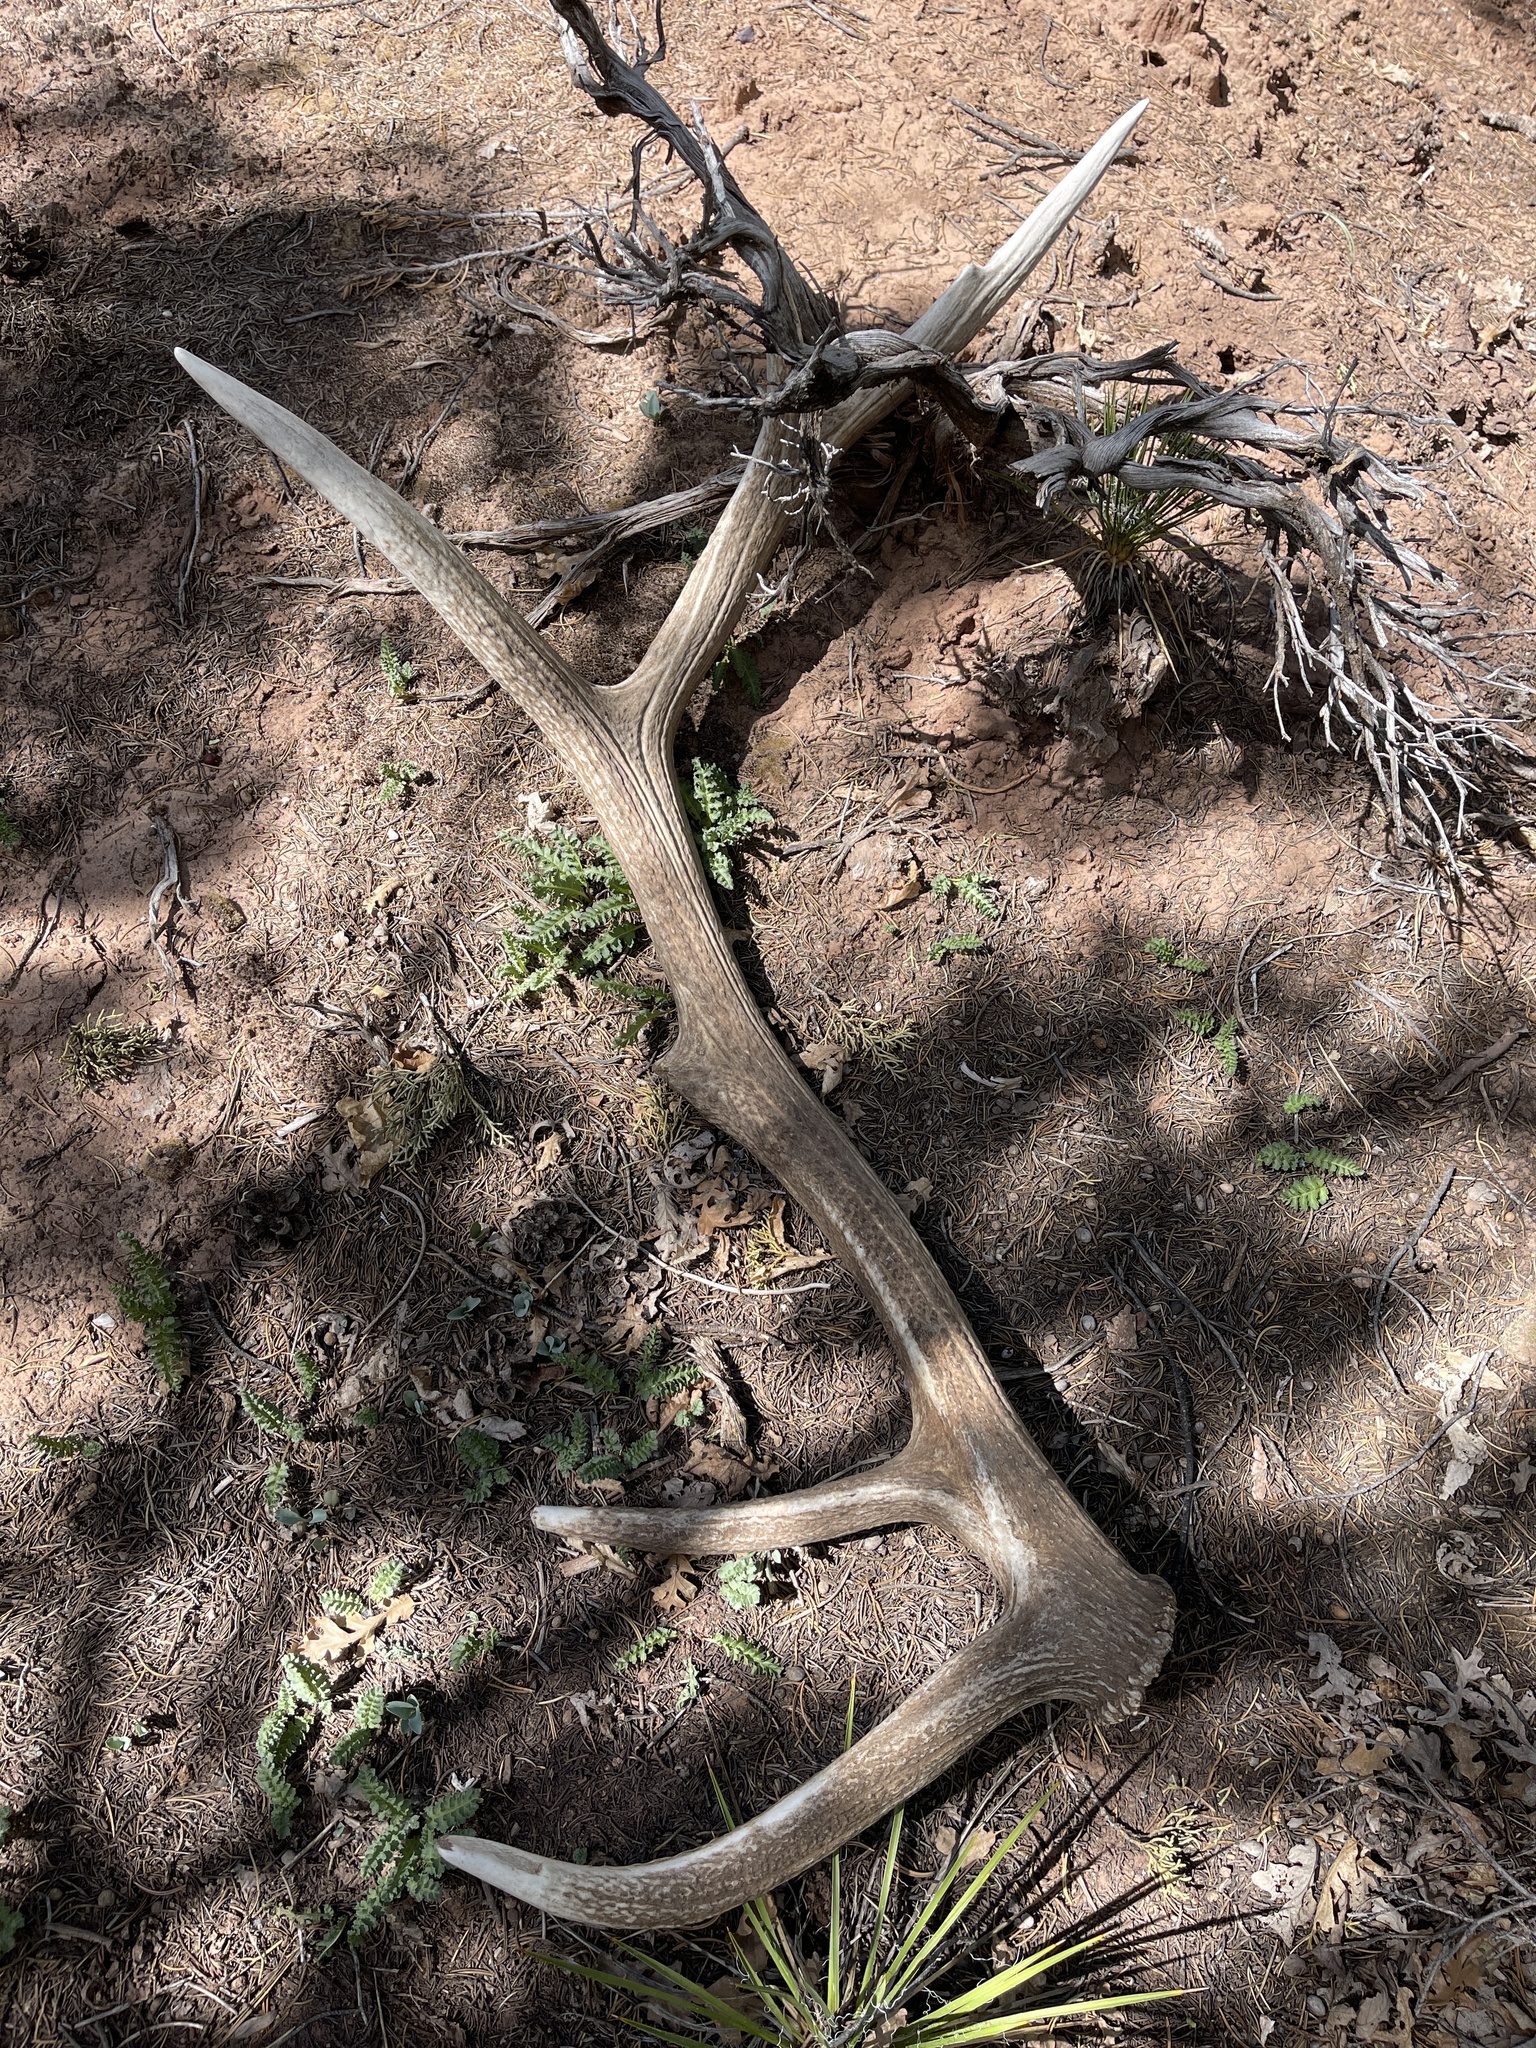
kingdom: Animalia
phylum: Chordata
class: Mammalia
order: Artiodactyla
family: Cervidae
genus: Cervus
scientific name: Cervus elaphus
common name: Red deer
